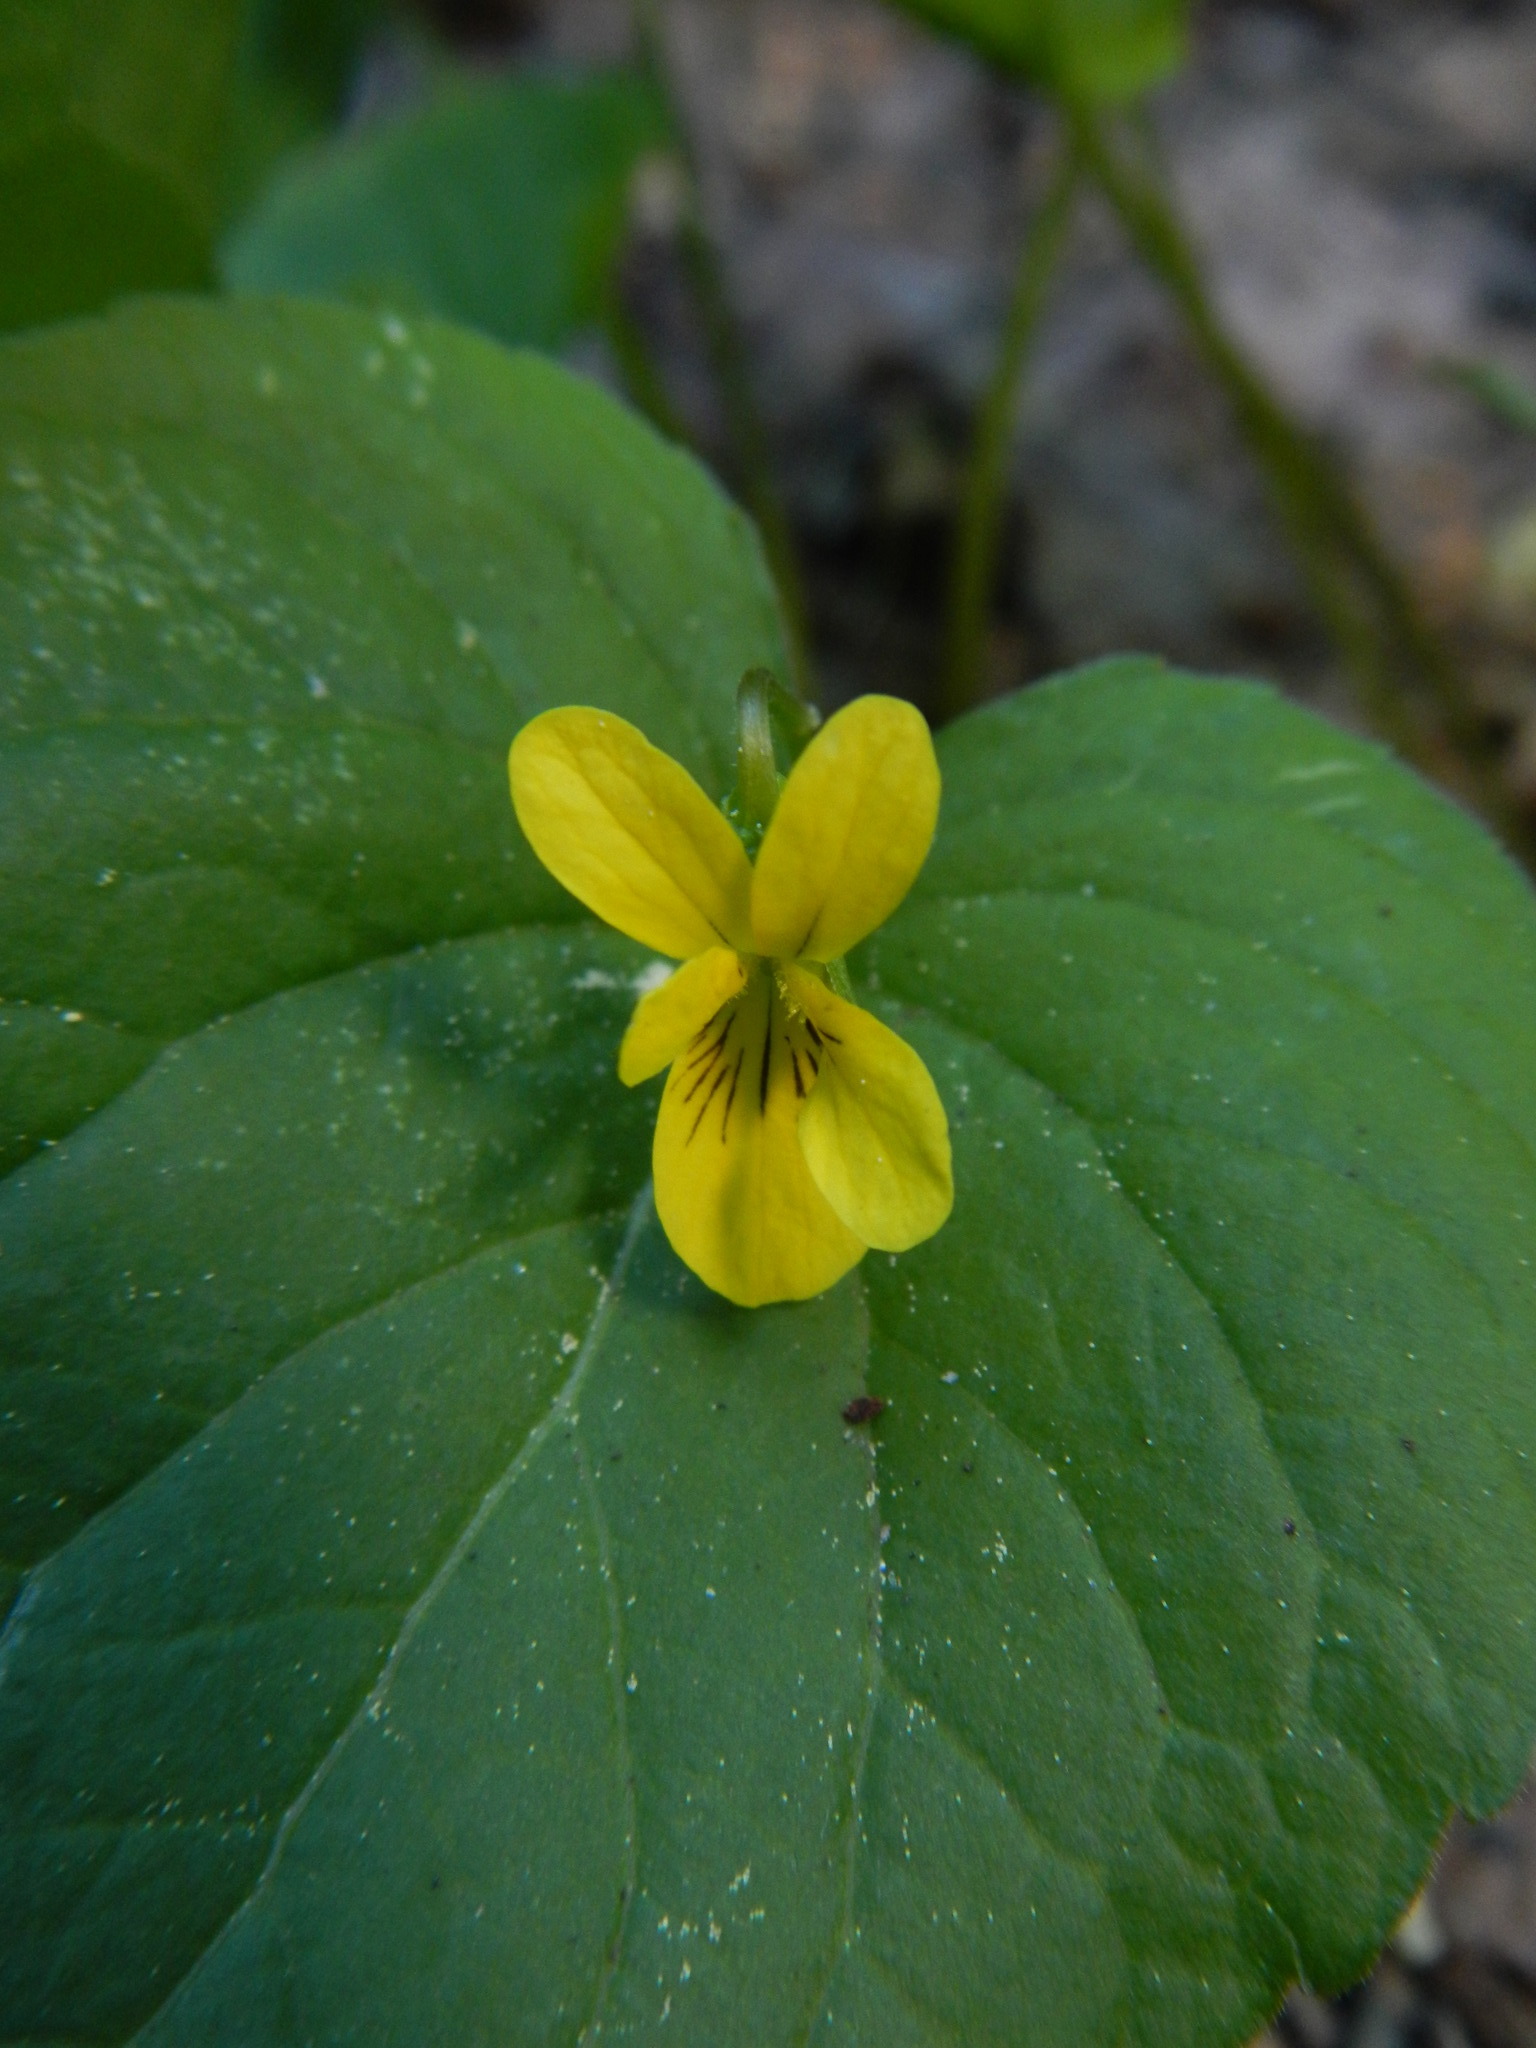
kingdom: Plantae
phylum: Tracheophyta
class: Magnoliopsida
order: Malpighiales
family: Violaceae
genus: Viola
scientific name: Viola glabella
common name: Stream violet
